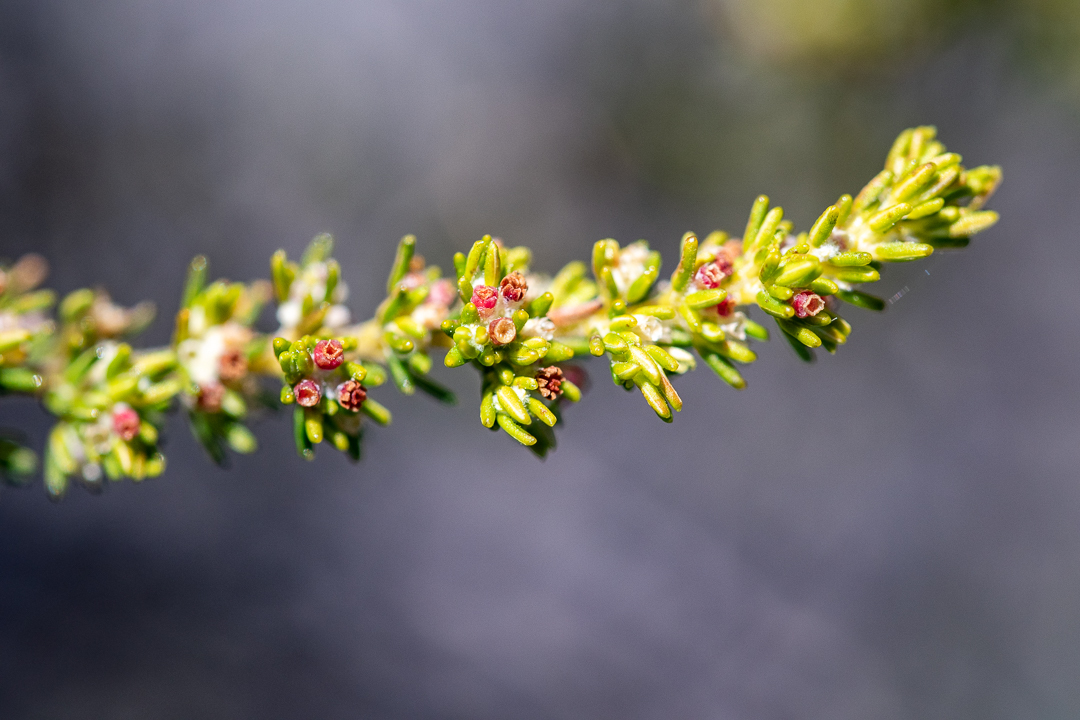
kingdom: Plantae
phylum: Tracheophyta
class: Magnoliopsida
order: Ericales
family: Ericaceae
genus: Erica
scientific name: Erica axillaris
